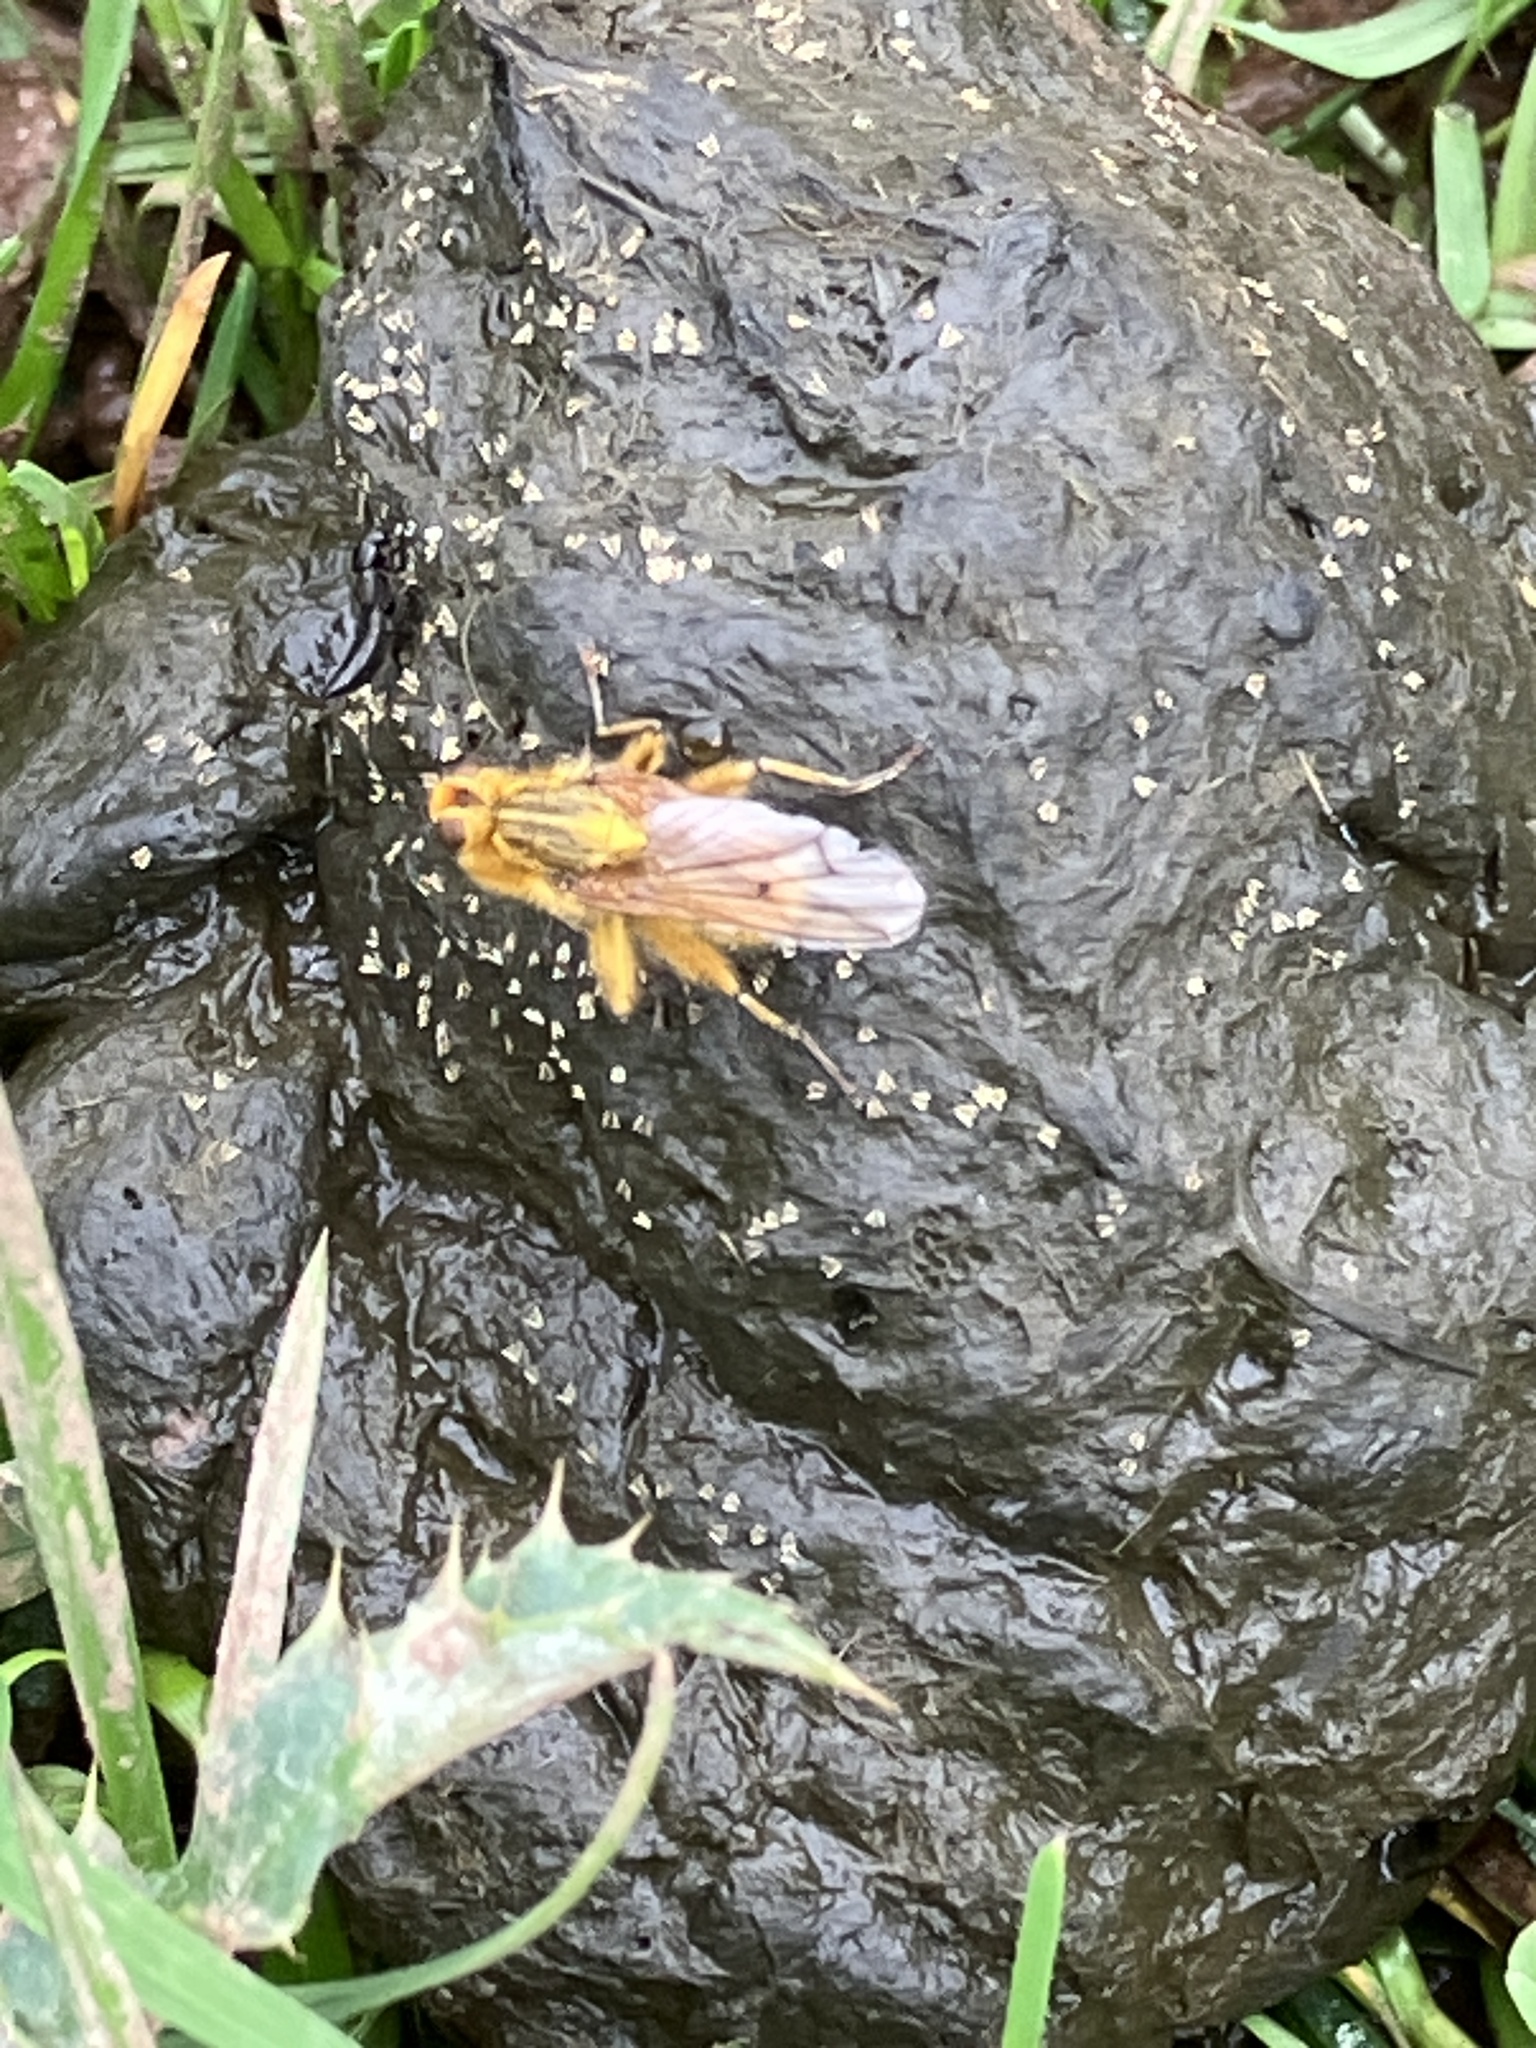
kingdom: Animalia
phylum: Arthropoda
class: Insecta
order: Diptera
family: Scathophagidae
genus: Scathophaga
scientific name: Scathophaga stercoraria
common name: Yellow dung fly
